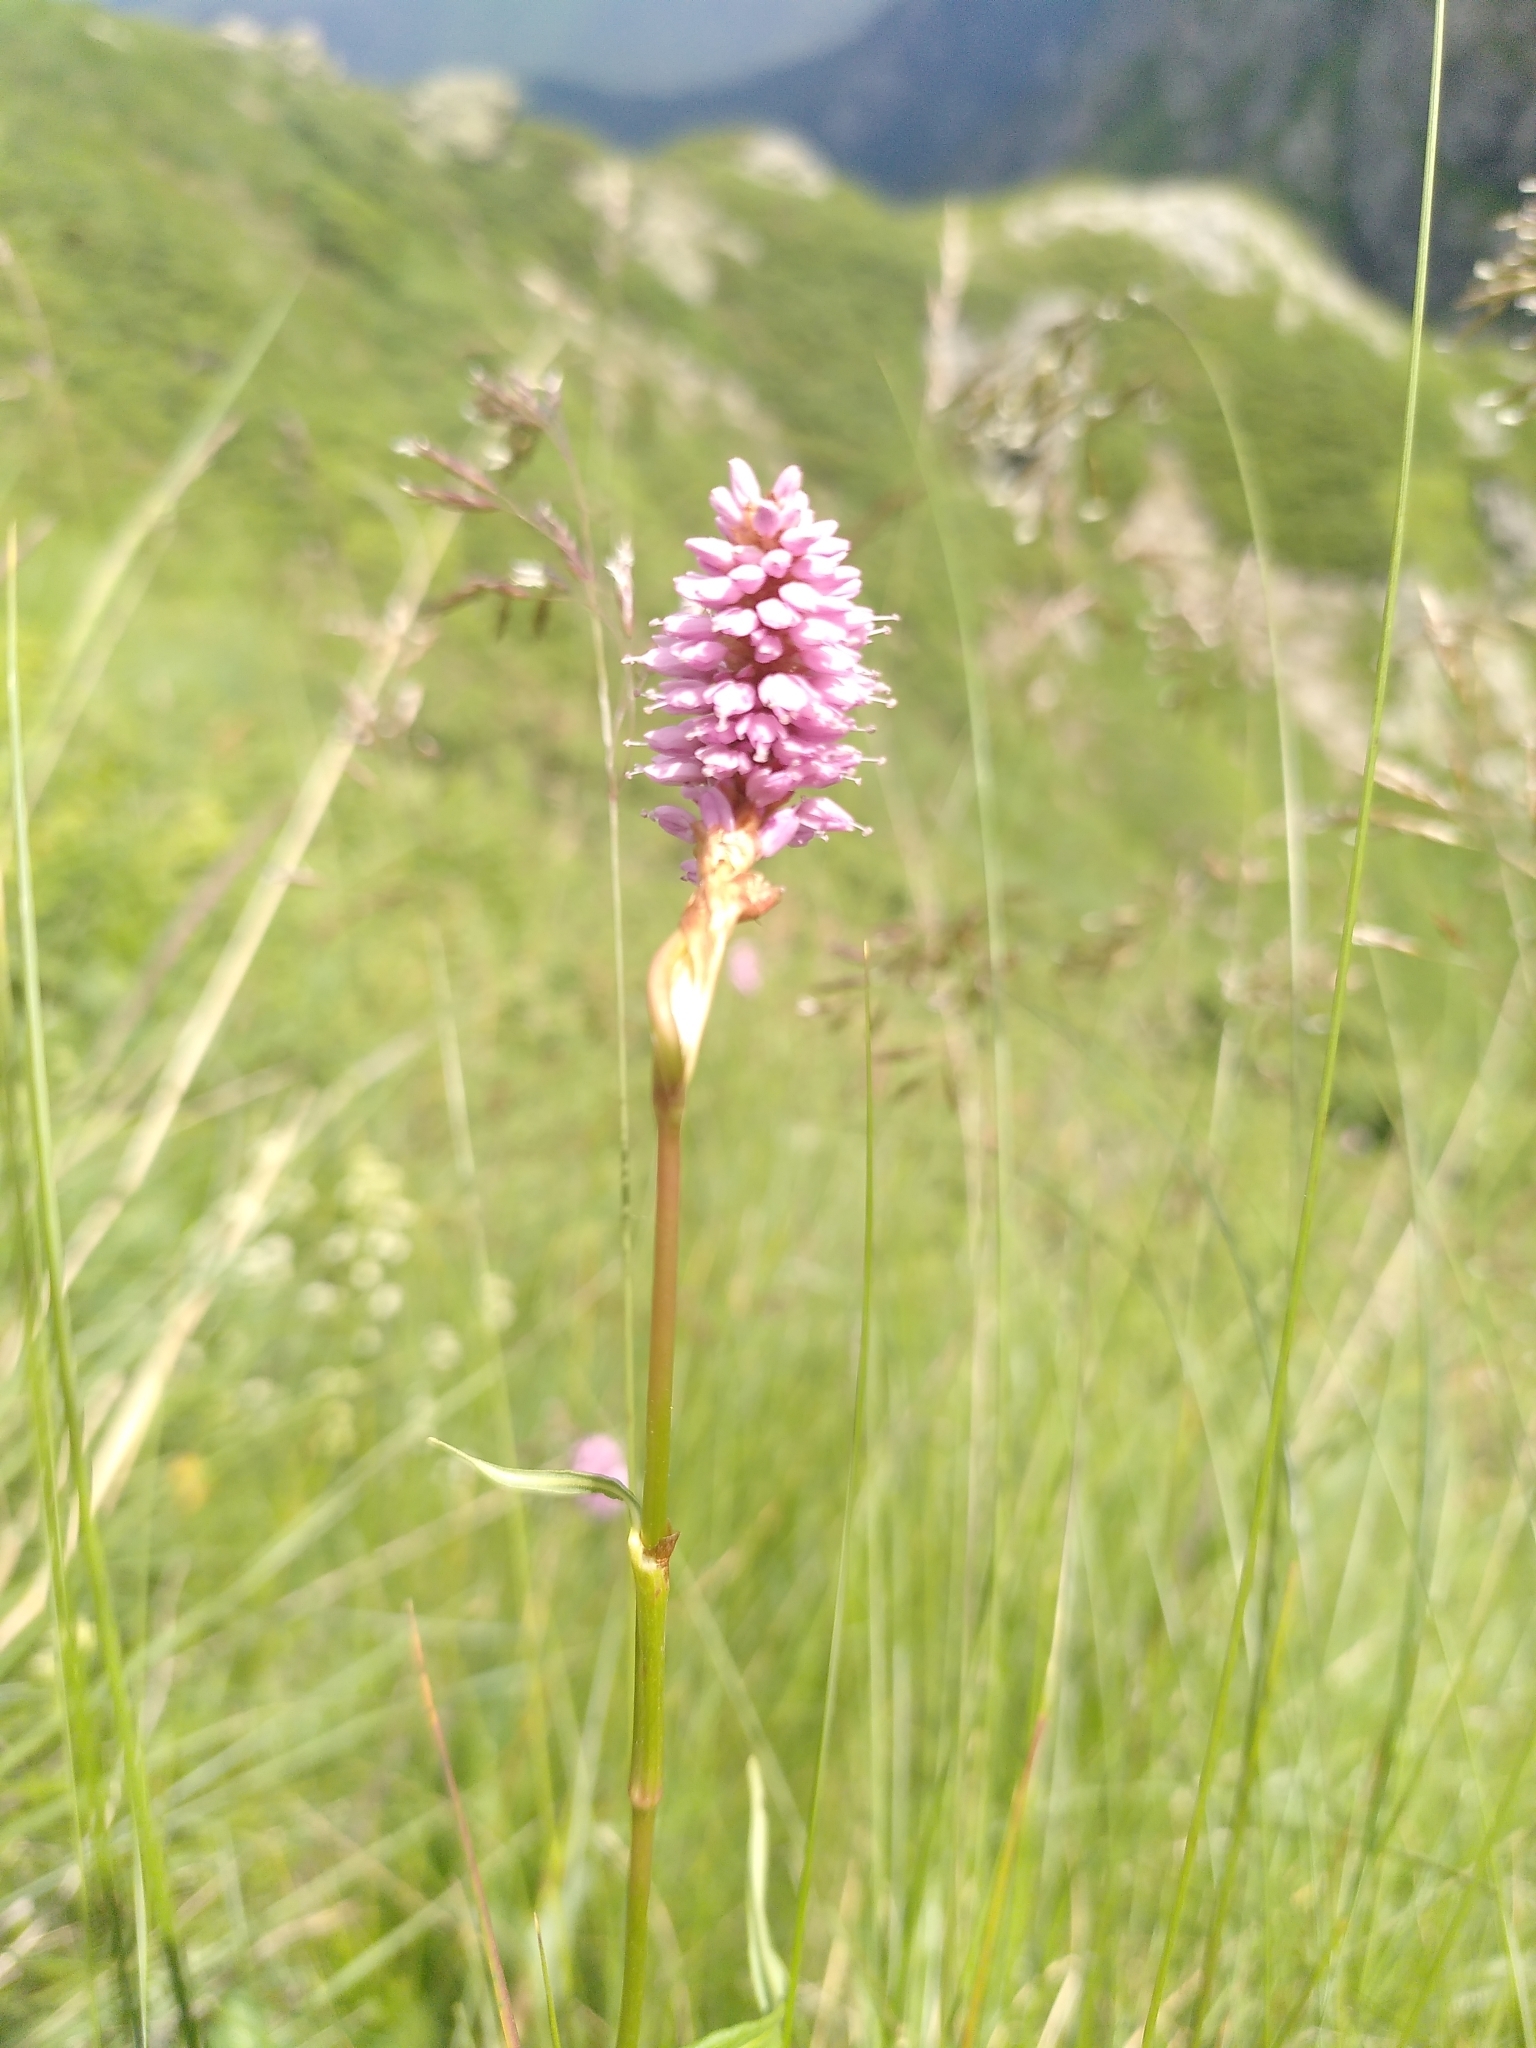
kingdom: Plantae
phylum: Tracheophyta
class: Magnoliopsida
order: Caryophyllales
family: Polygonaceae
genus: Bistorta
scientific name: Bistorta officinalis
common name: Common bistort
